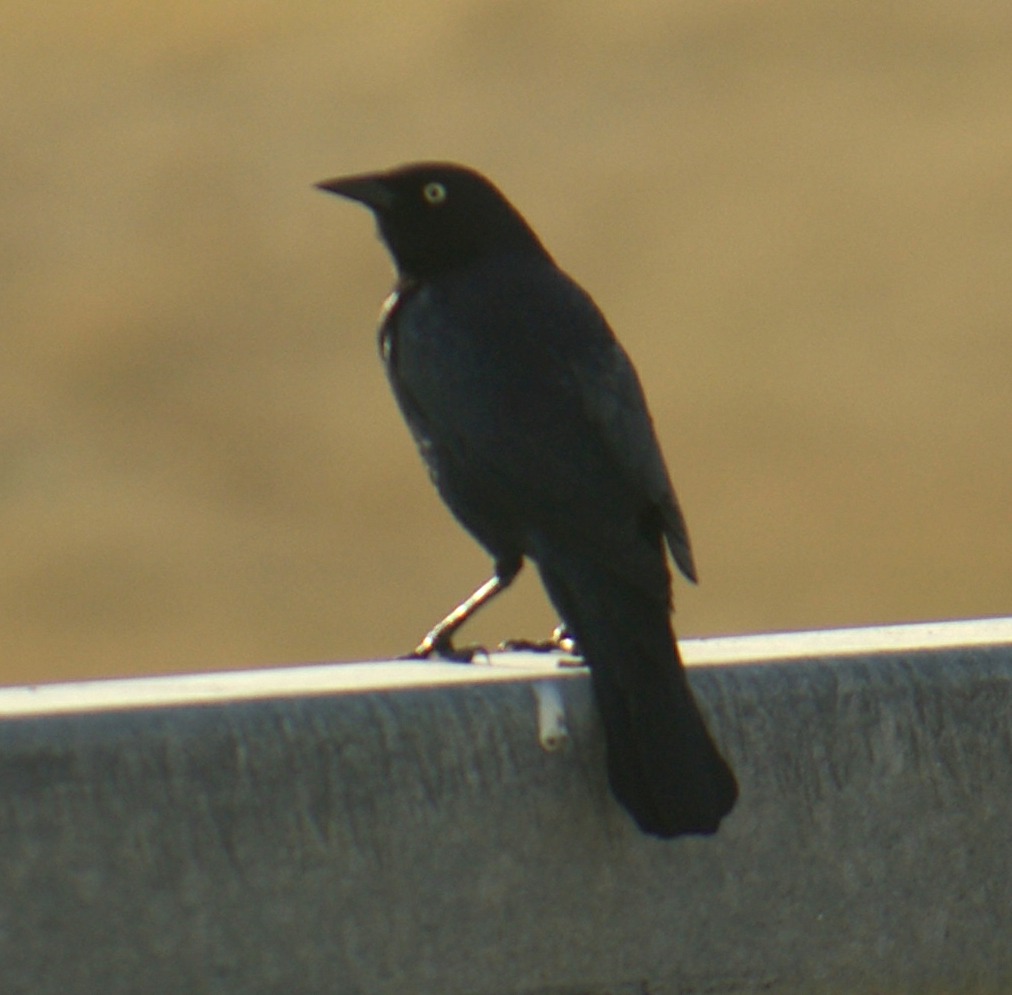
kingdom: Animalia
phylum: Chordata
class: Aves
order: Passeriformes
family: Icteridae
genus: Euphagus
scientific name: Euphagus cyanocephalus
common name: Brewer's blackbird
